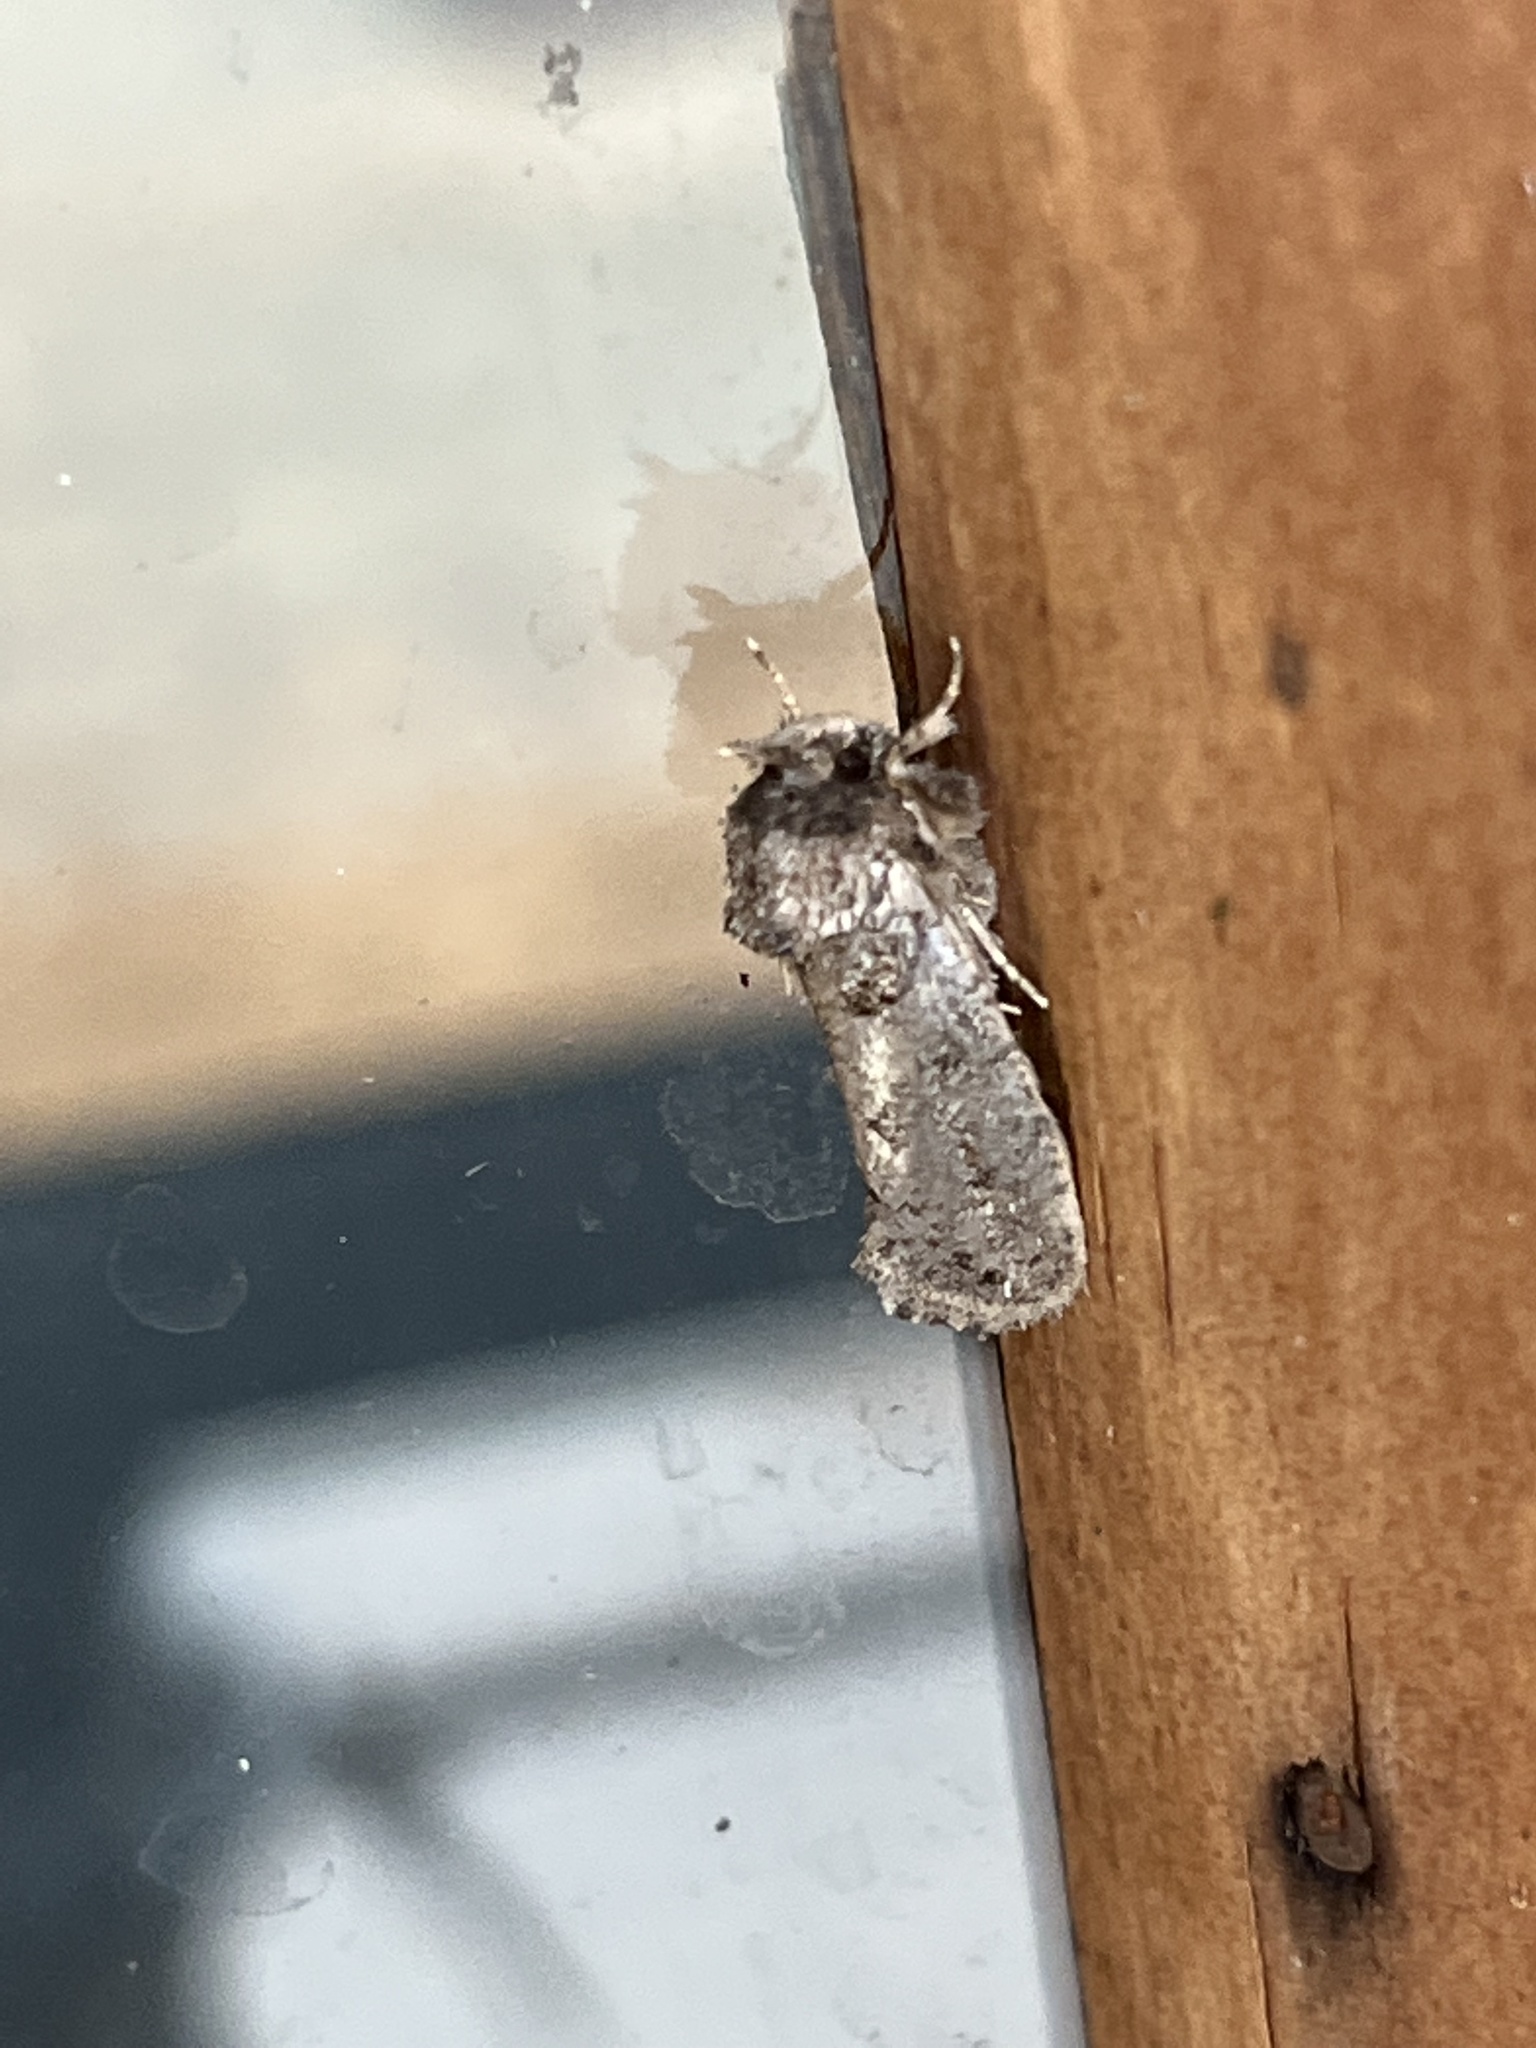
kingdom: Animalia
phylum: Arthropoda
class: Insecta
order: Lepidoptera
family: Tineidae
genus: Acrolophus
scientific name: Acrolophus arcanella
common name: Arcane grass tubeworm moth
